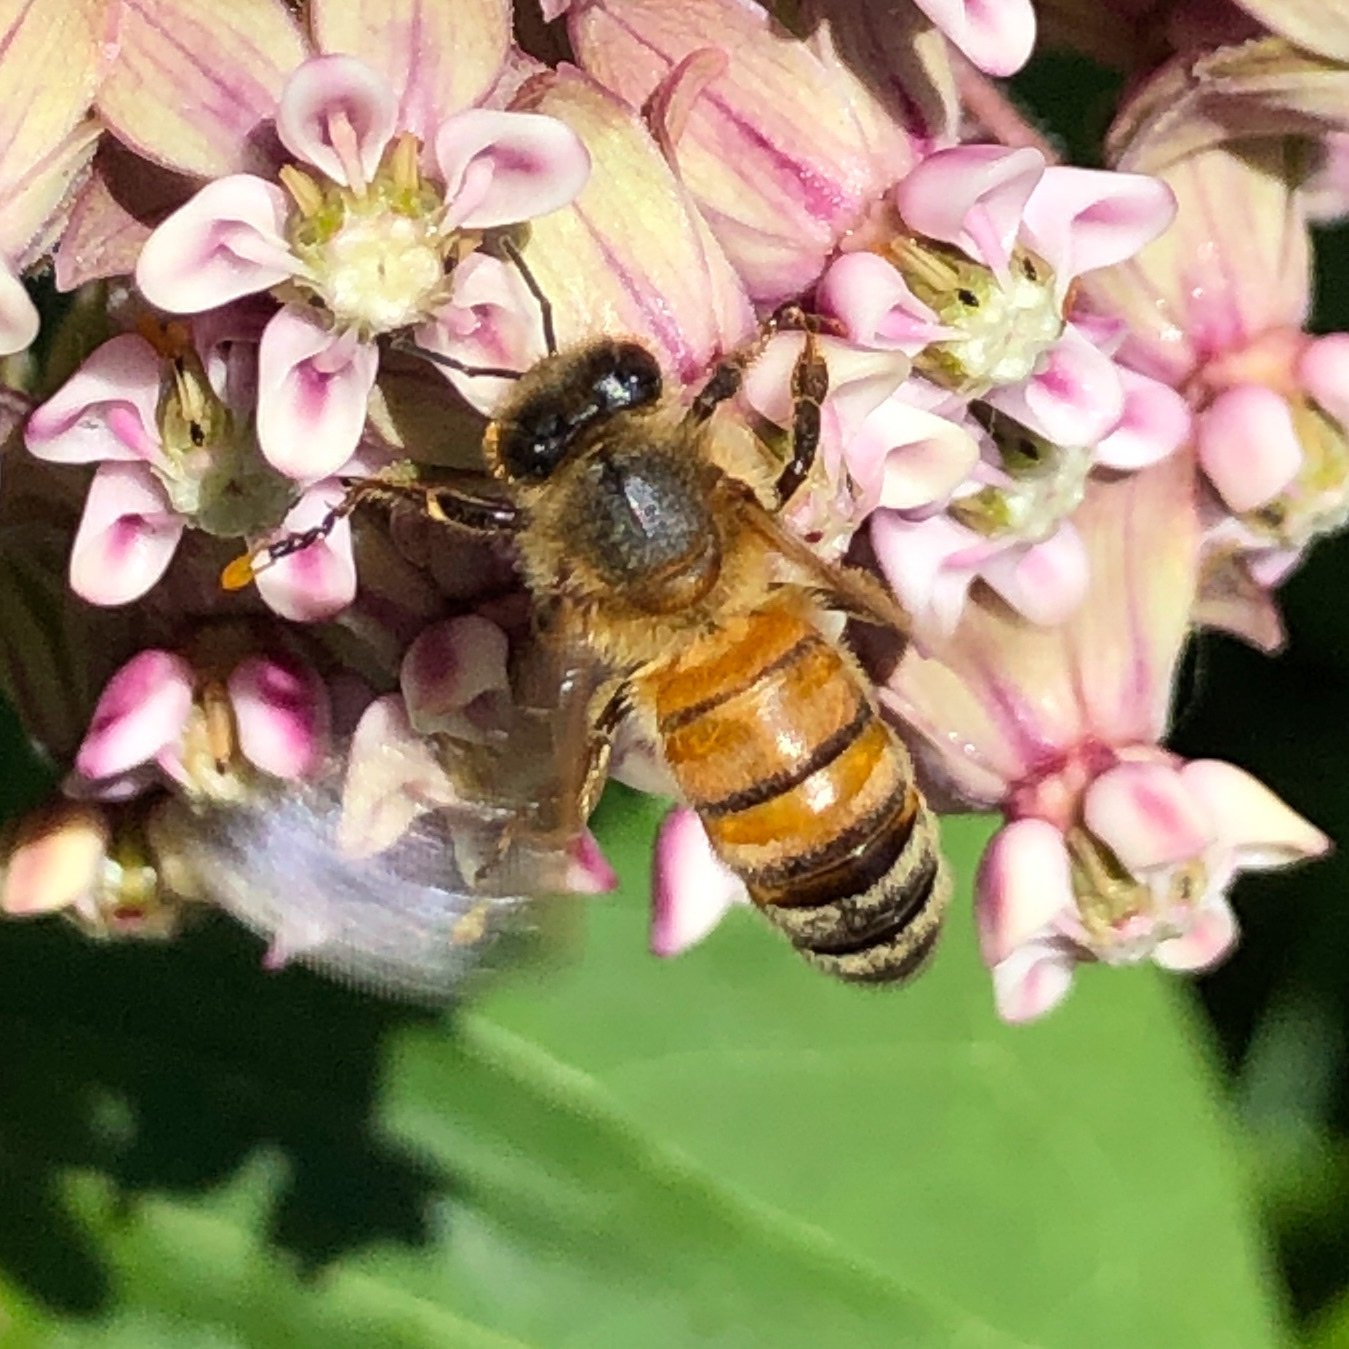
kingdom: Animalia
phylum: Arthropoda
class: Insecta
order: Hymenoptera
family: Apidae
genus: Apis
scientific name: Apis mellifera
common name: Honey bee
